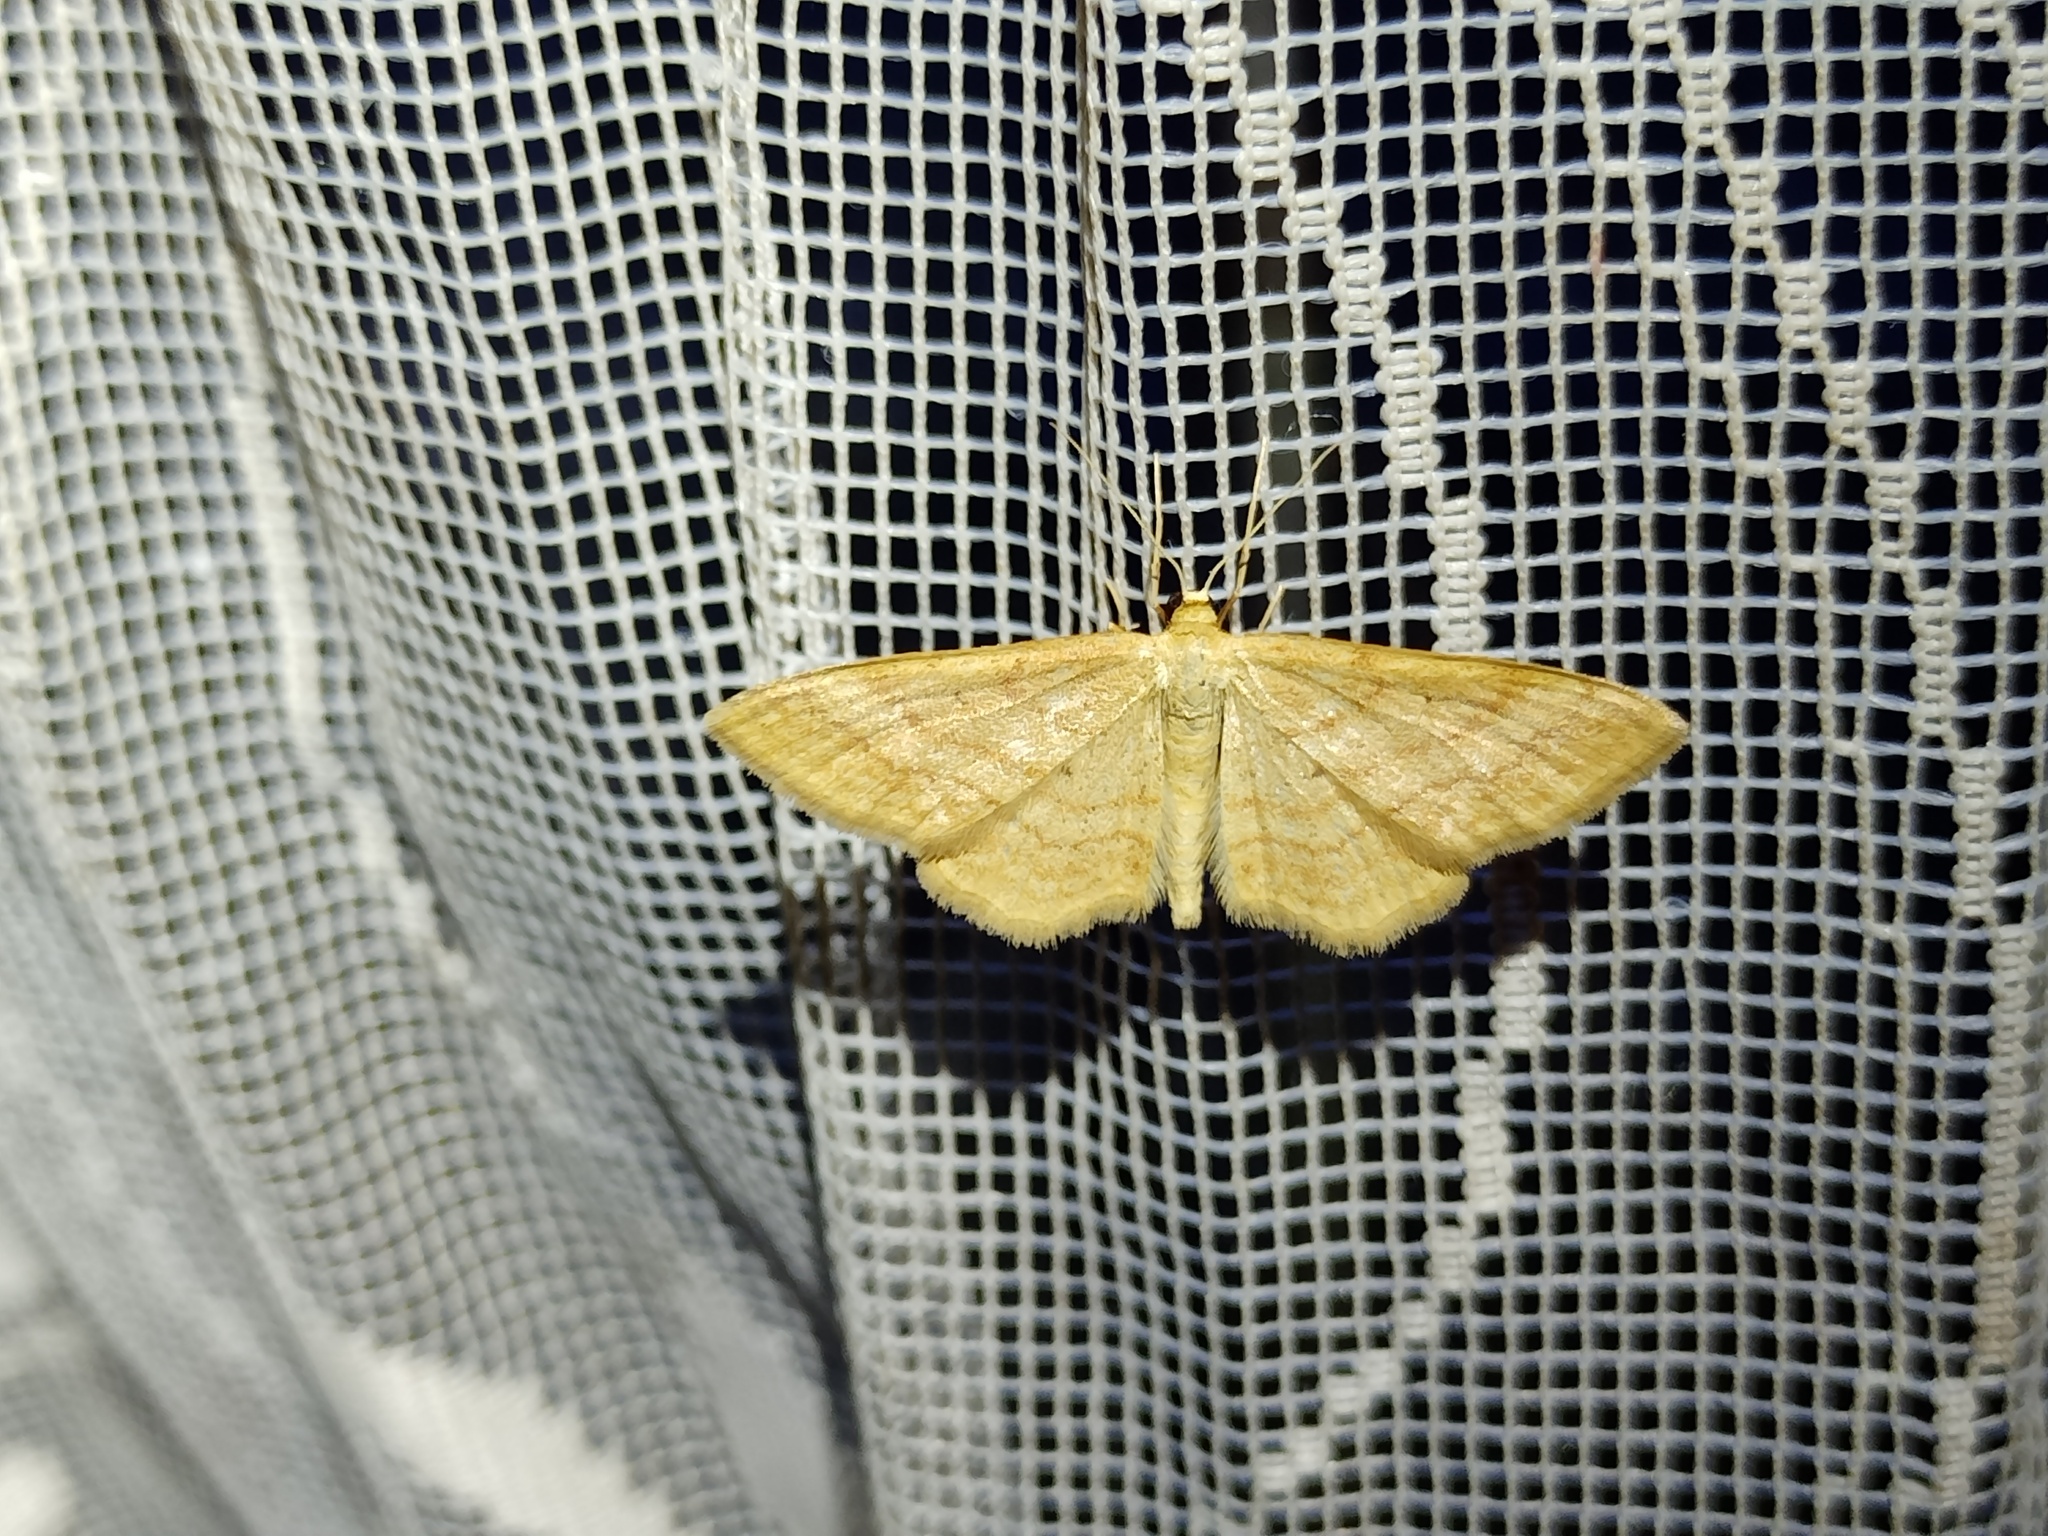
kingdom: Animalia
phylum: Arthropoda
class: Insecta
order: Lepidoptera
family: Geometridae
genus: Idaea
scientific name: Idaea rufaria
